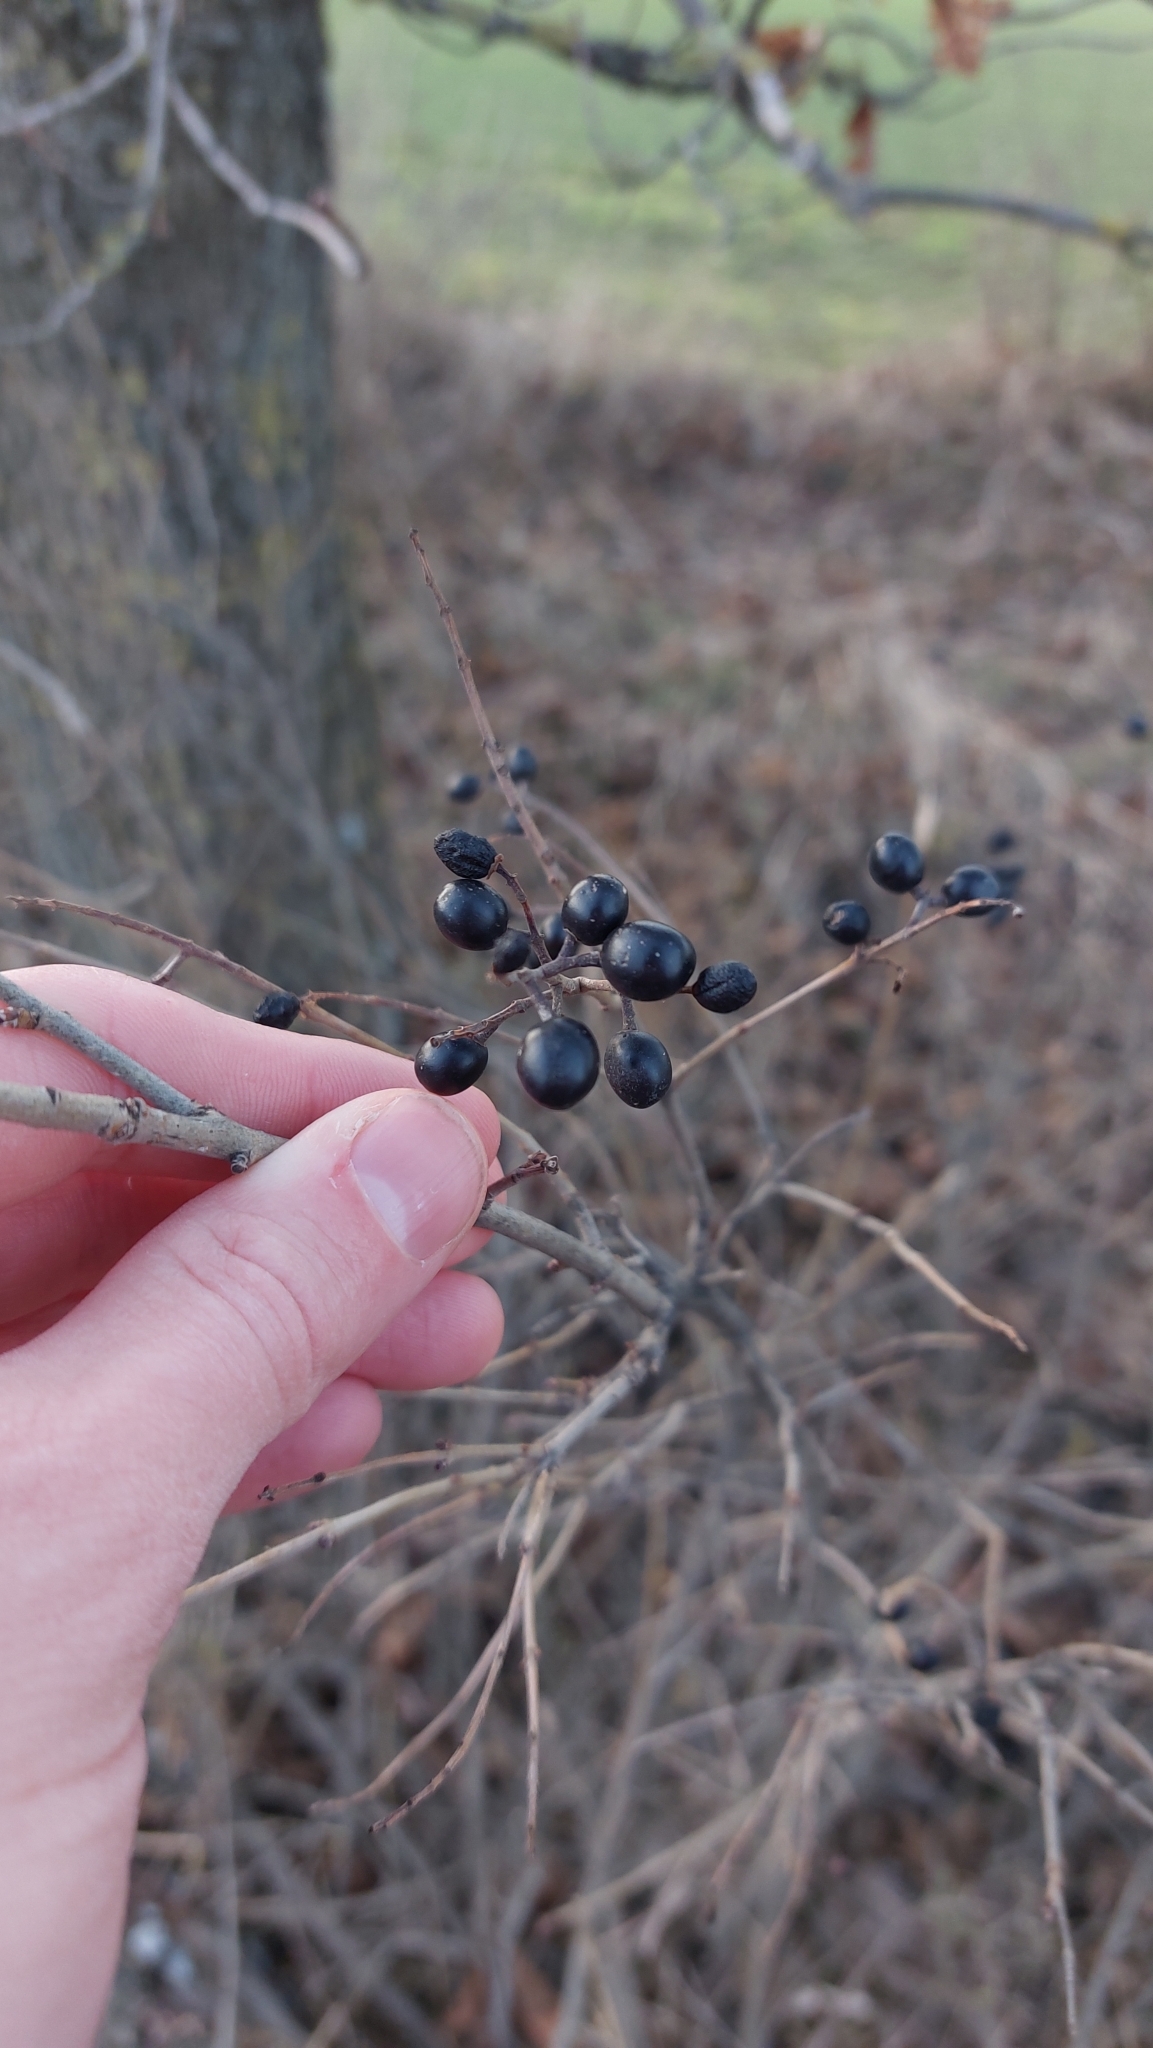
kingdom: Plantae
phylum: Tracheophyta
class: Magnoliopsida
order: Lamiales
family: Oleaceae
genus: Ligustrum
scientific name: Ligustrum vulgare
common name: Wild privet
